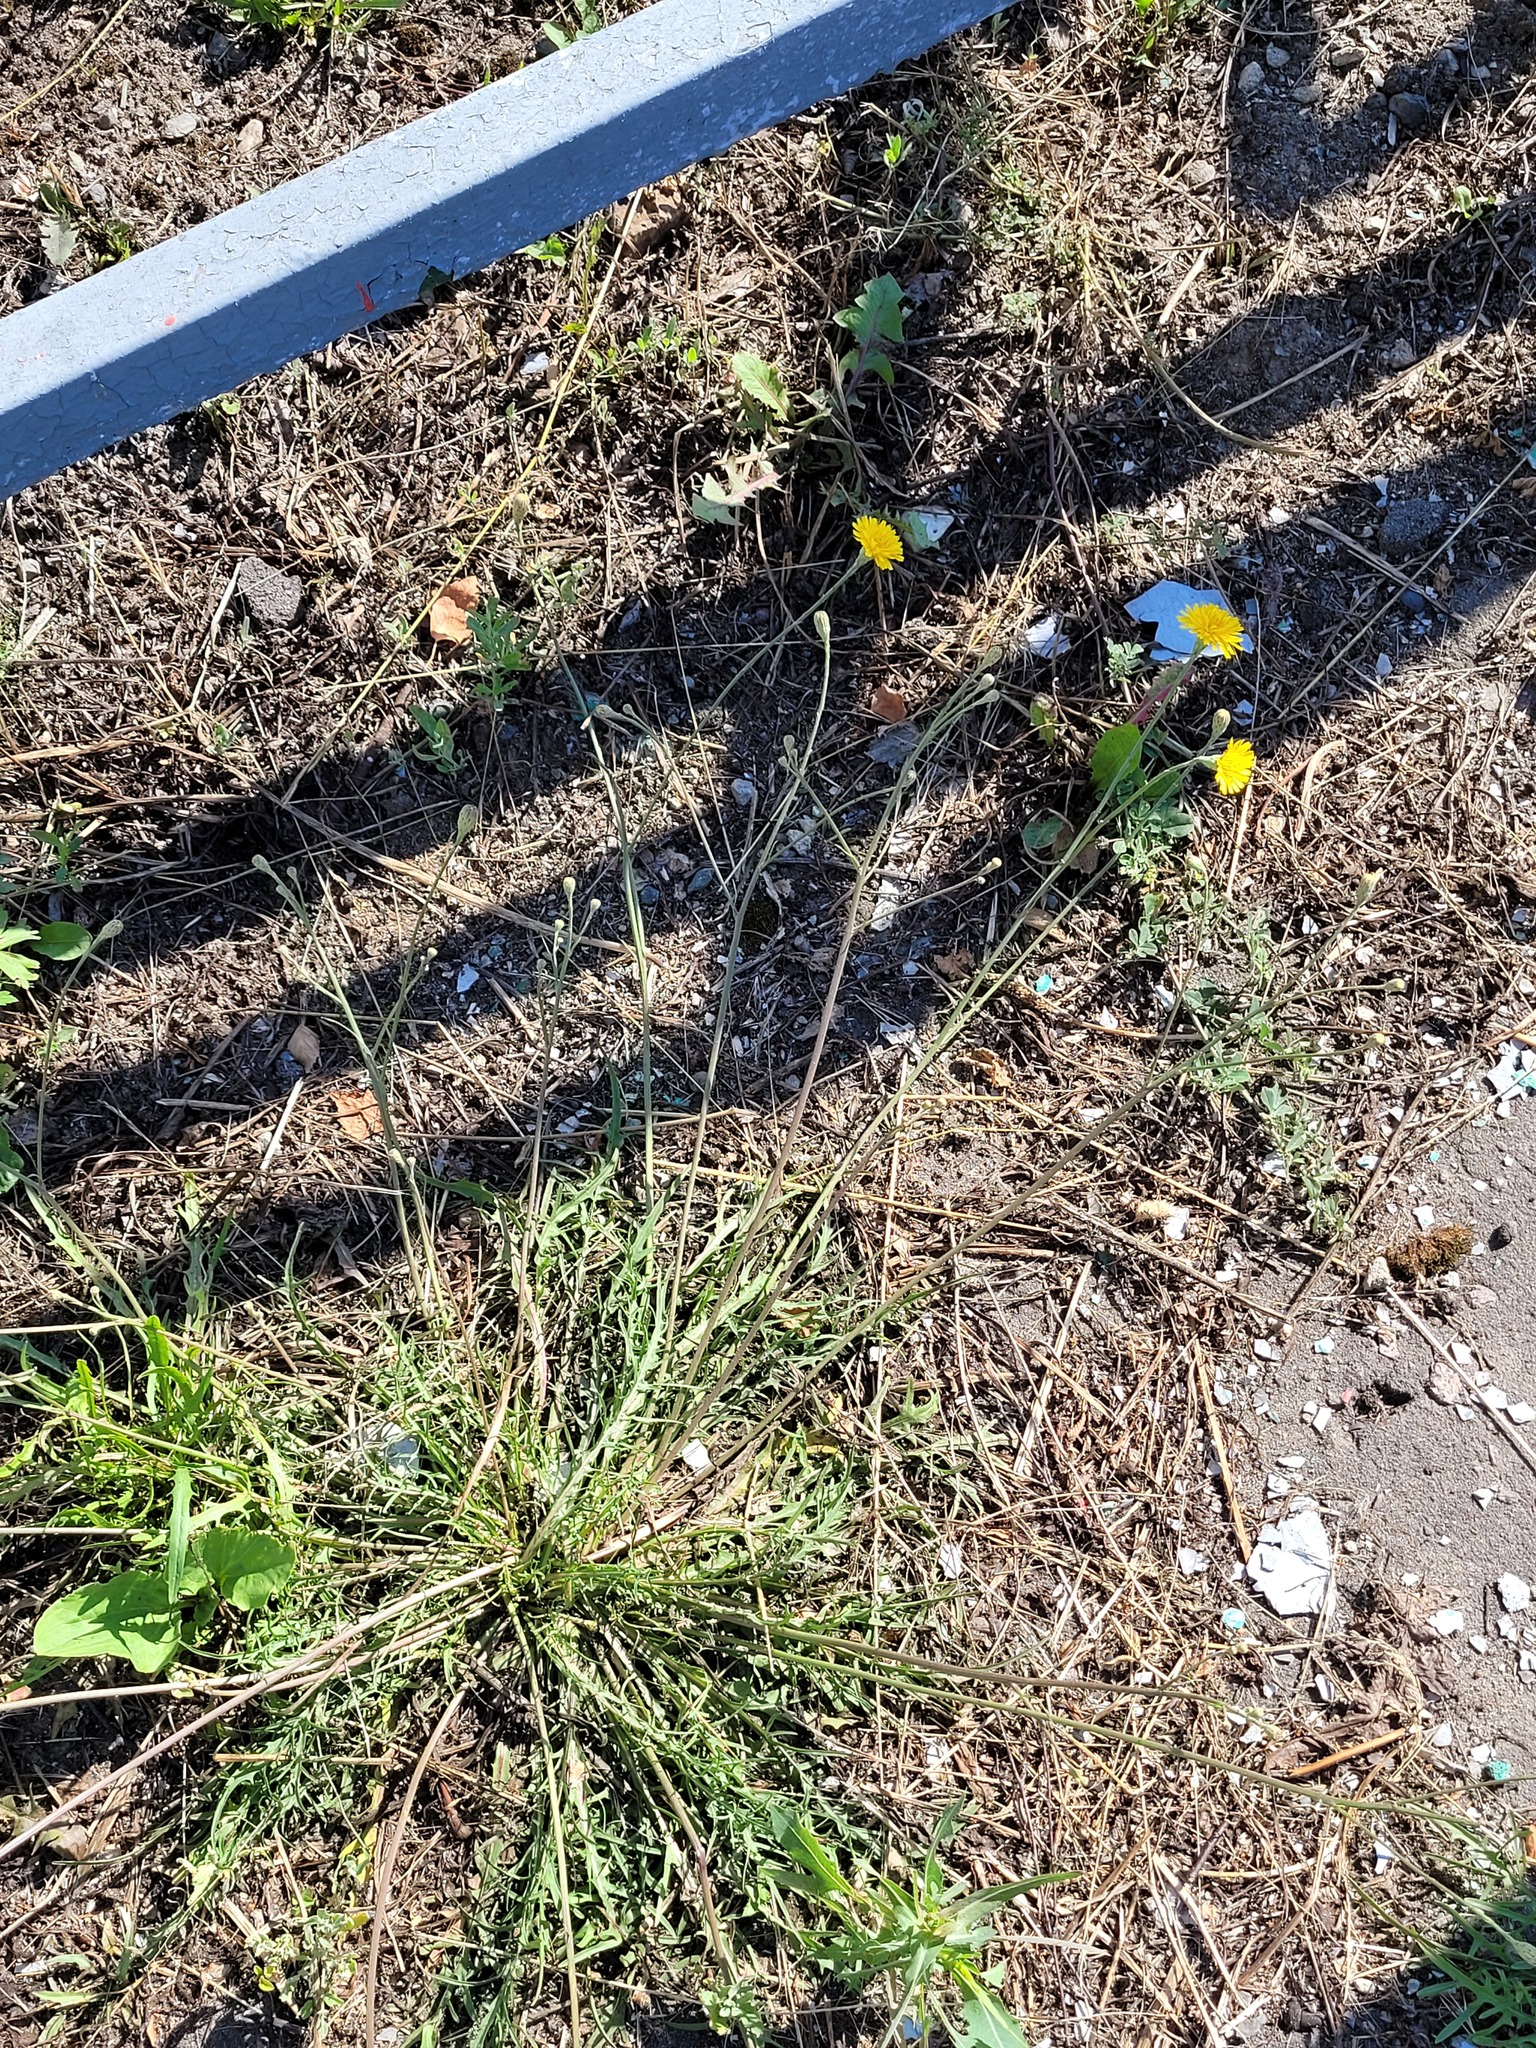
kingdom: Plantae
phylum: Tracheophyta
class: Magnoliopsida
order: Asterales
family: Asteraceae
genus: Scorzoneroides
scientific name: Scorzoneroides autumnalis
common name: Autumn hawkbit
